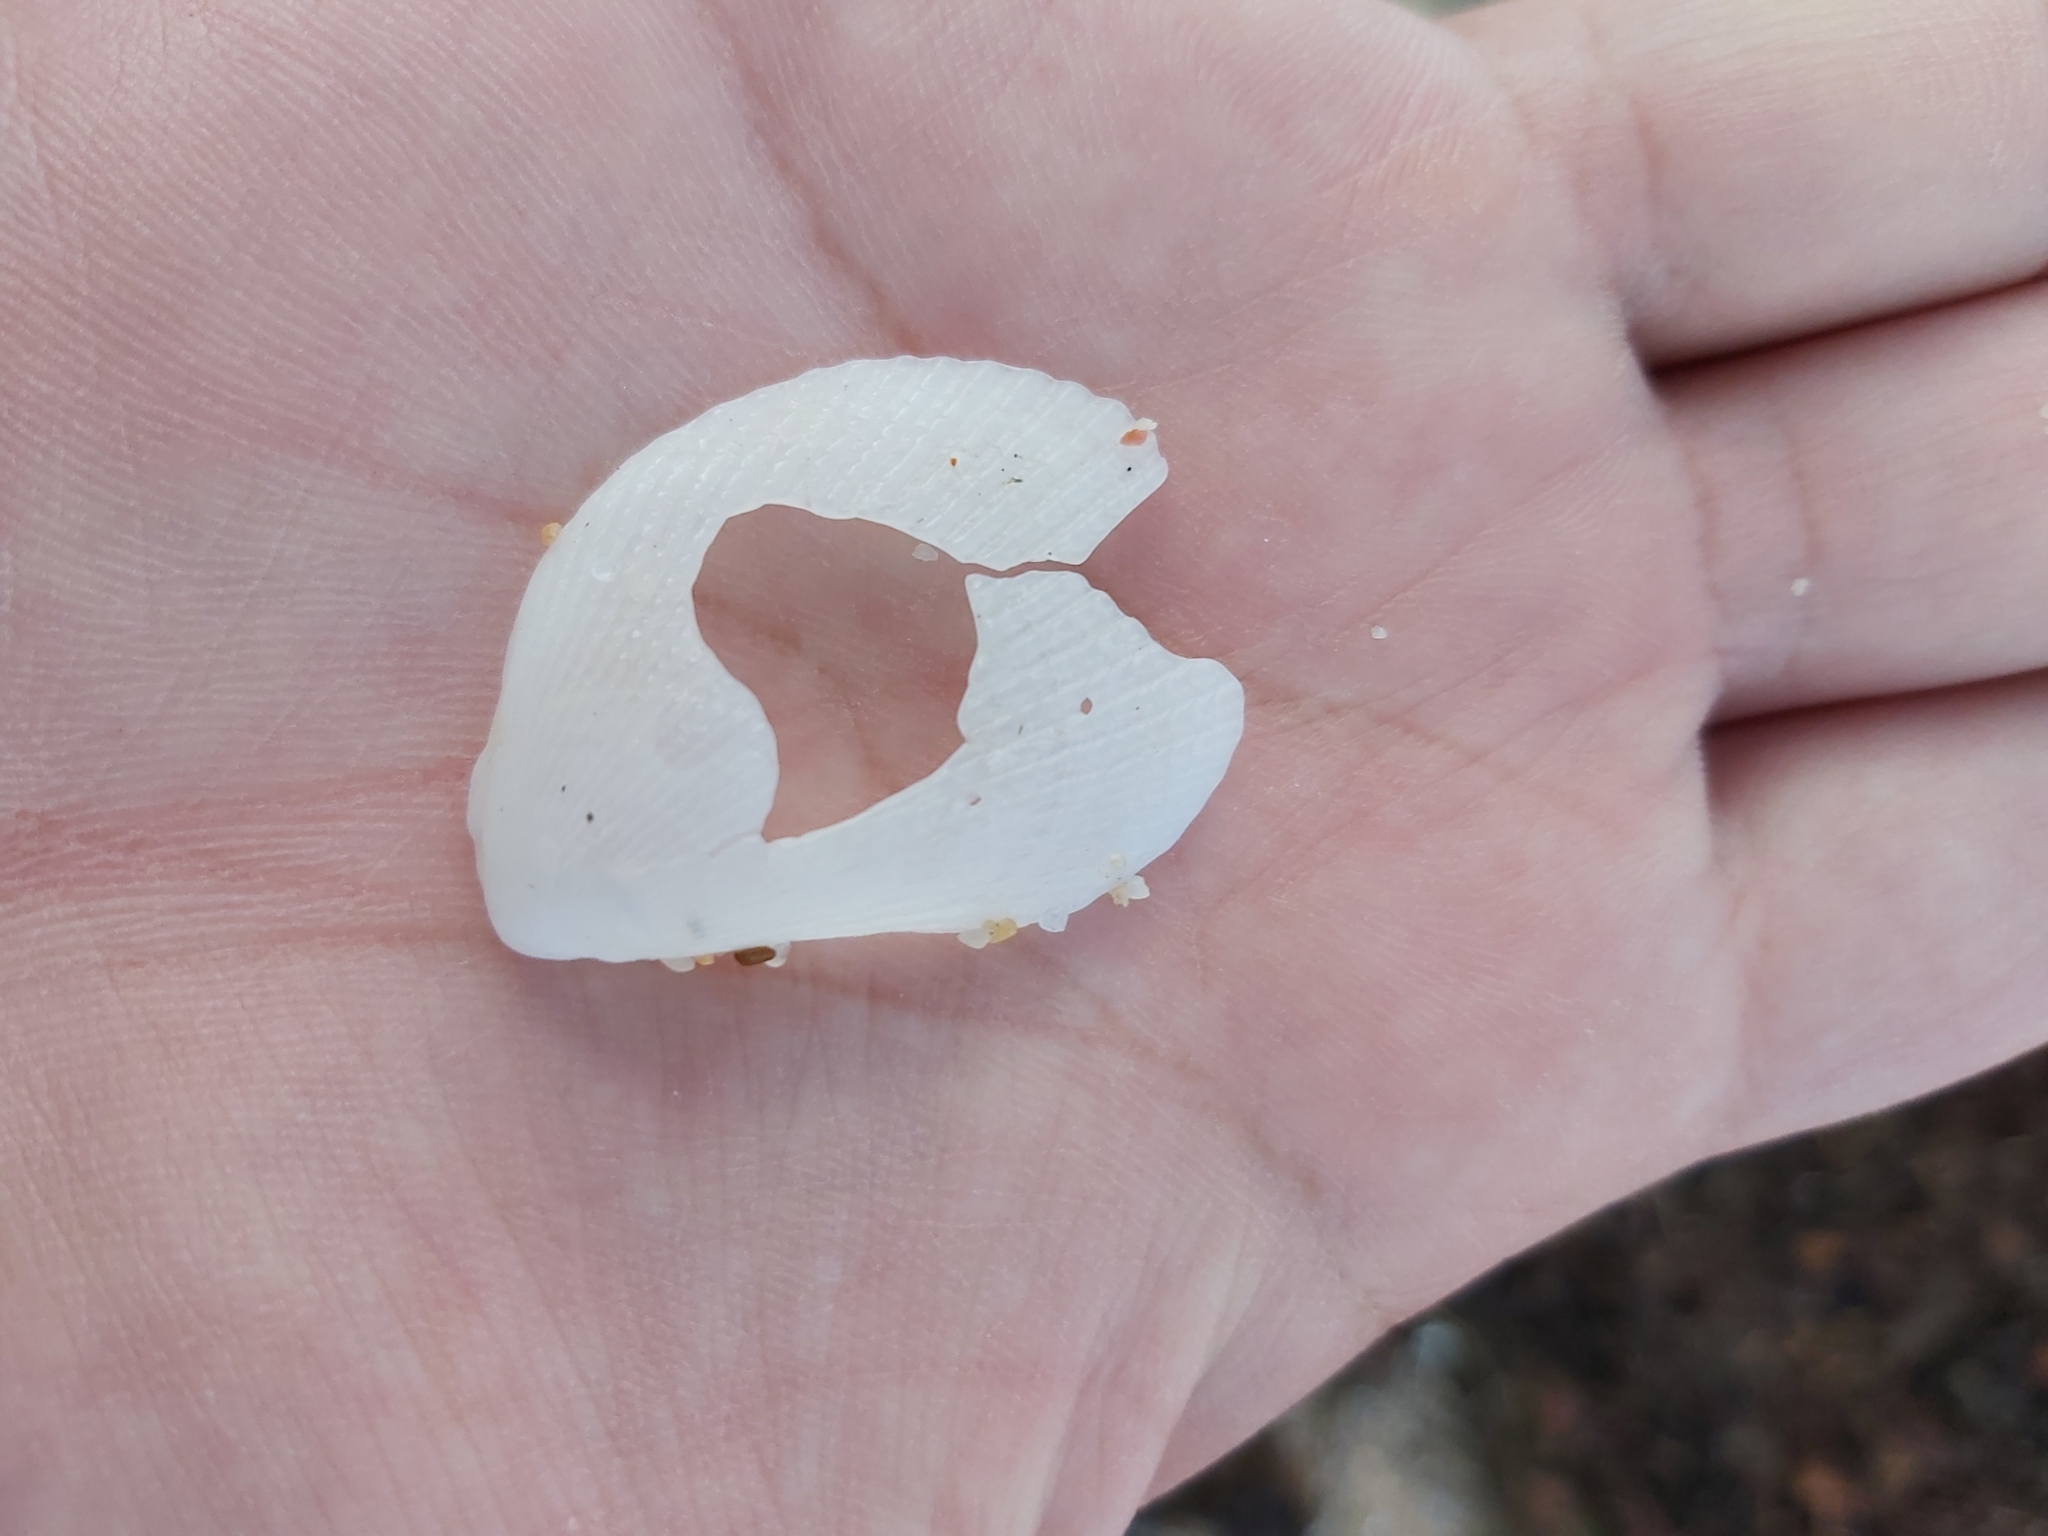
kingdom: Animalia
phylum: Mollusca
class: Bivalvia
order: Limida
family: Limidae
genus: Lima
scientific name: Lima nimbifer
